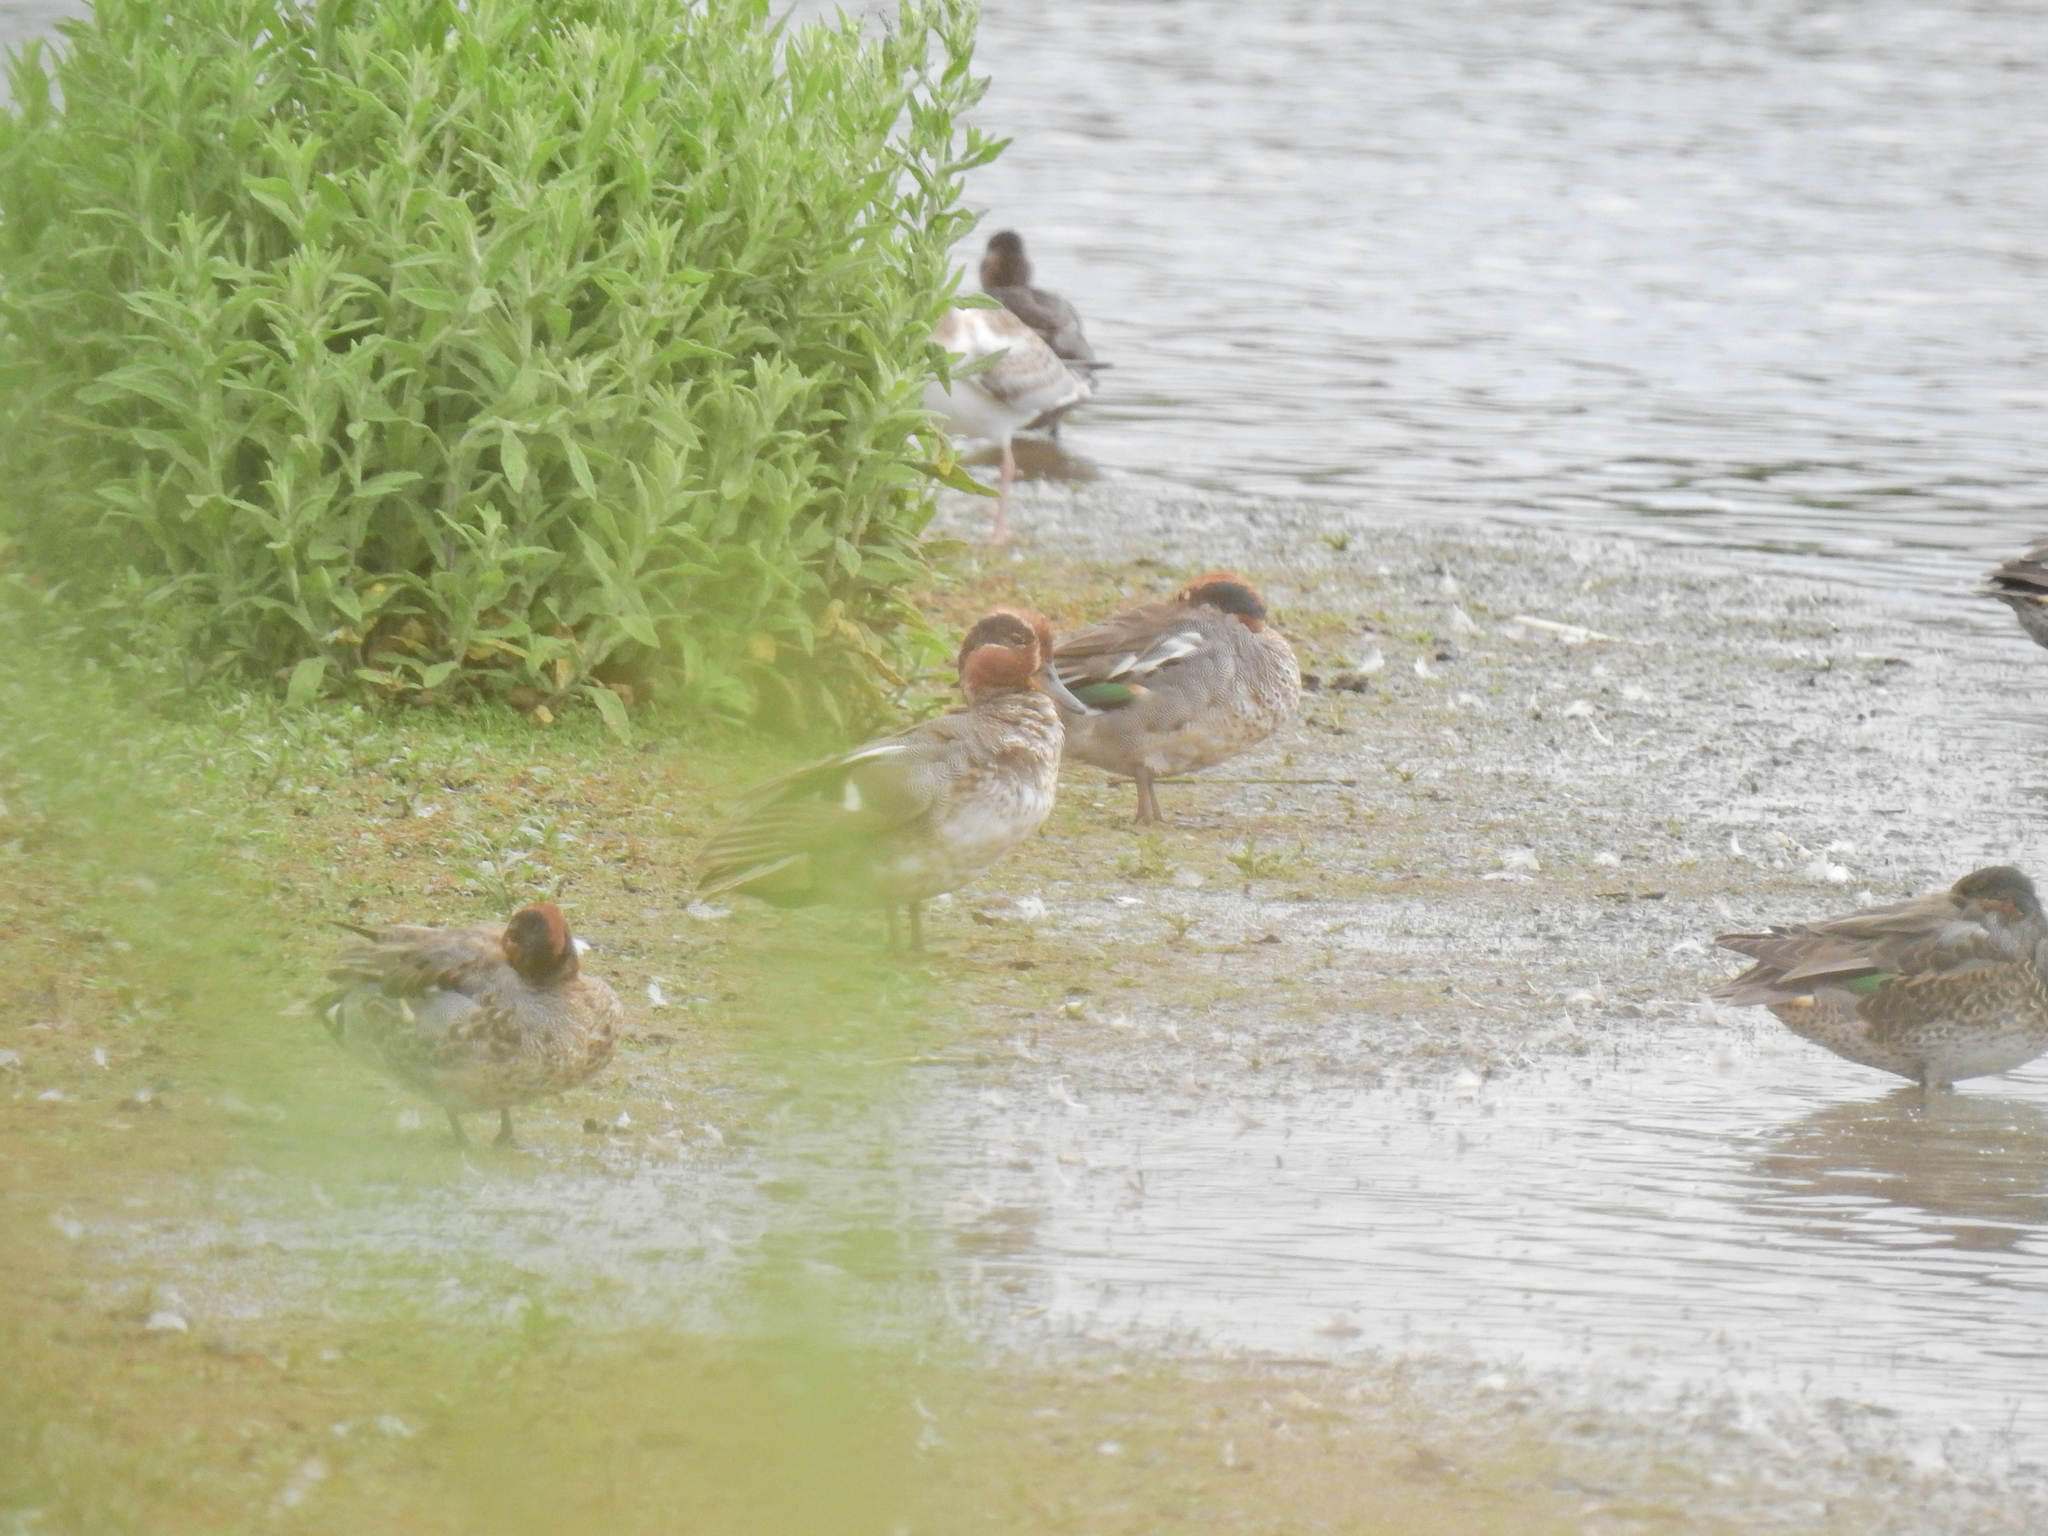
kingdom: Animalia
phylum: Chordata
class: Aves
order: Anseriformes
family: Anatidae
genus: Anas
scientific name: Anas crecca
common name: Eurasian teal
